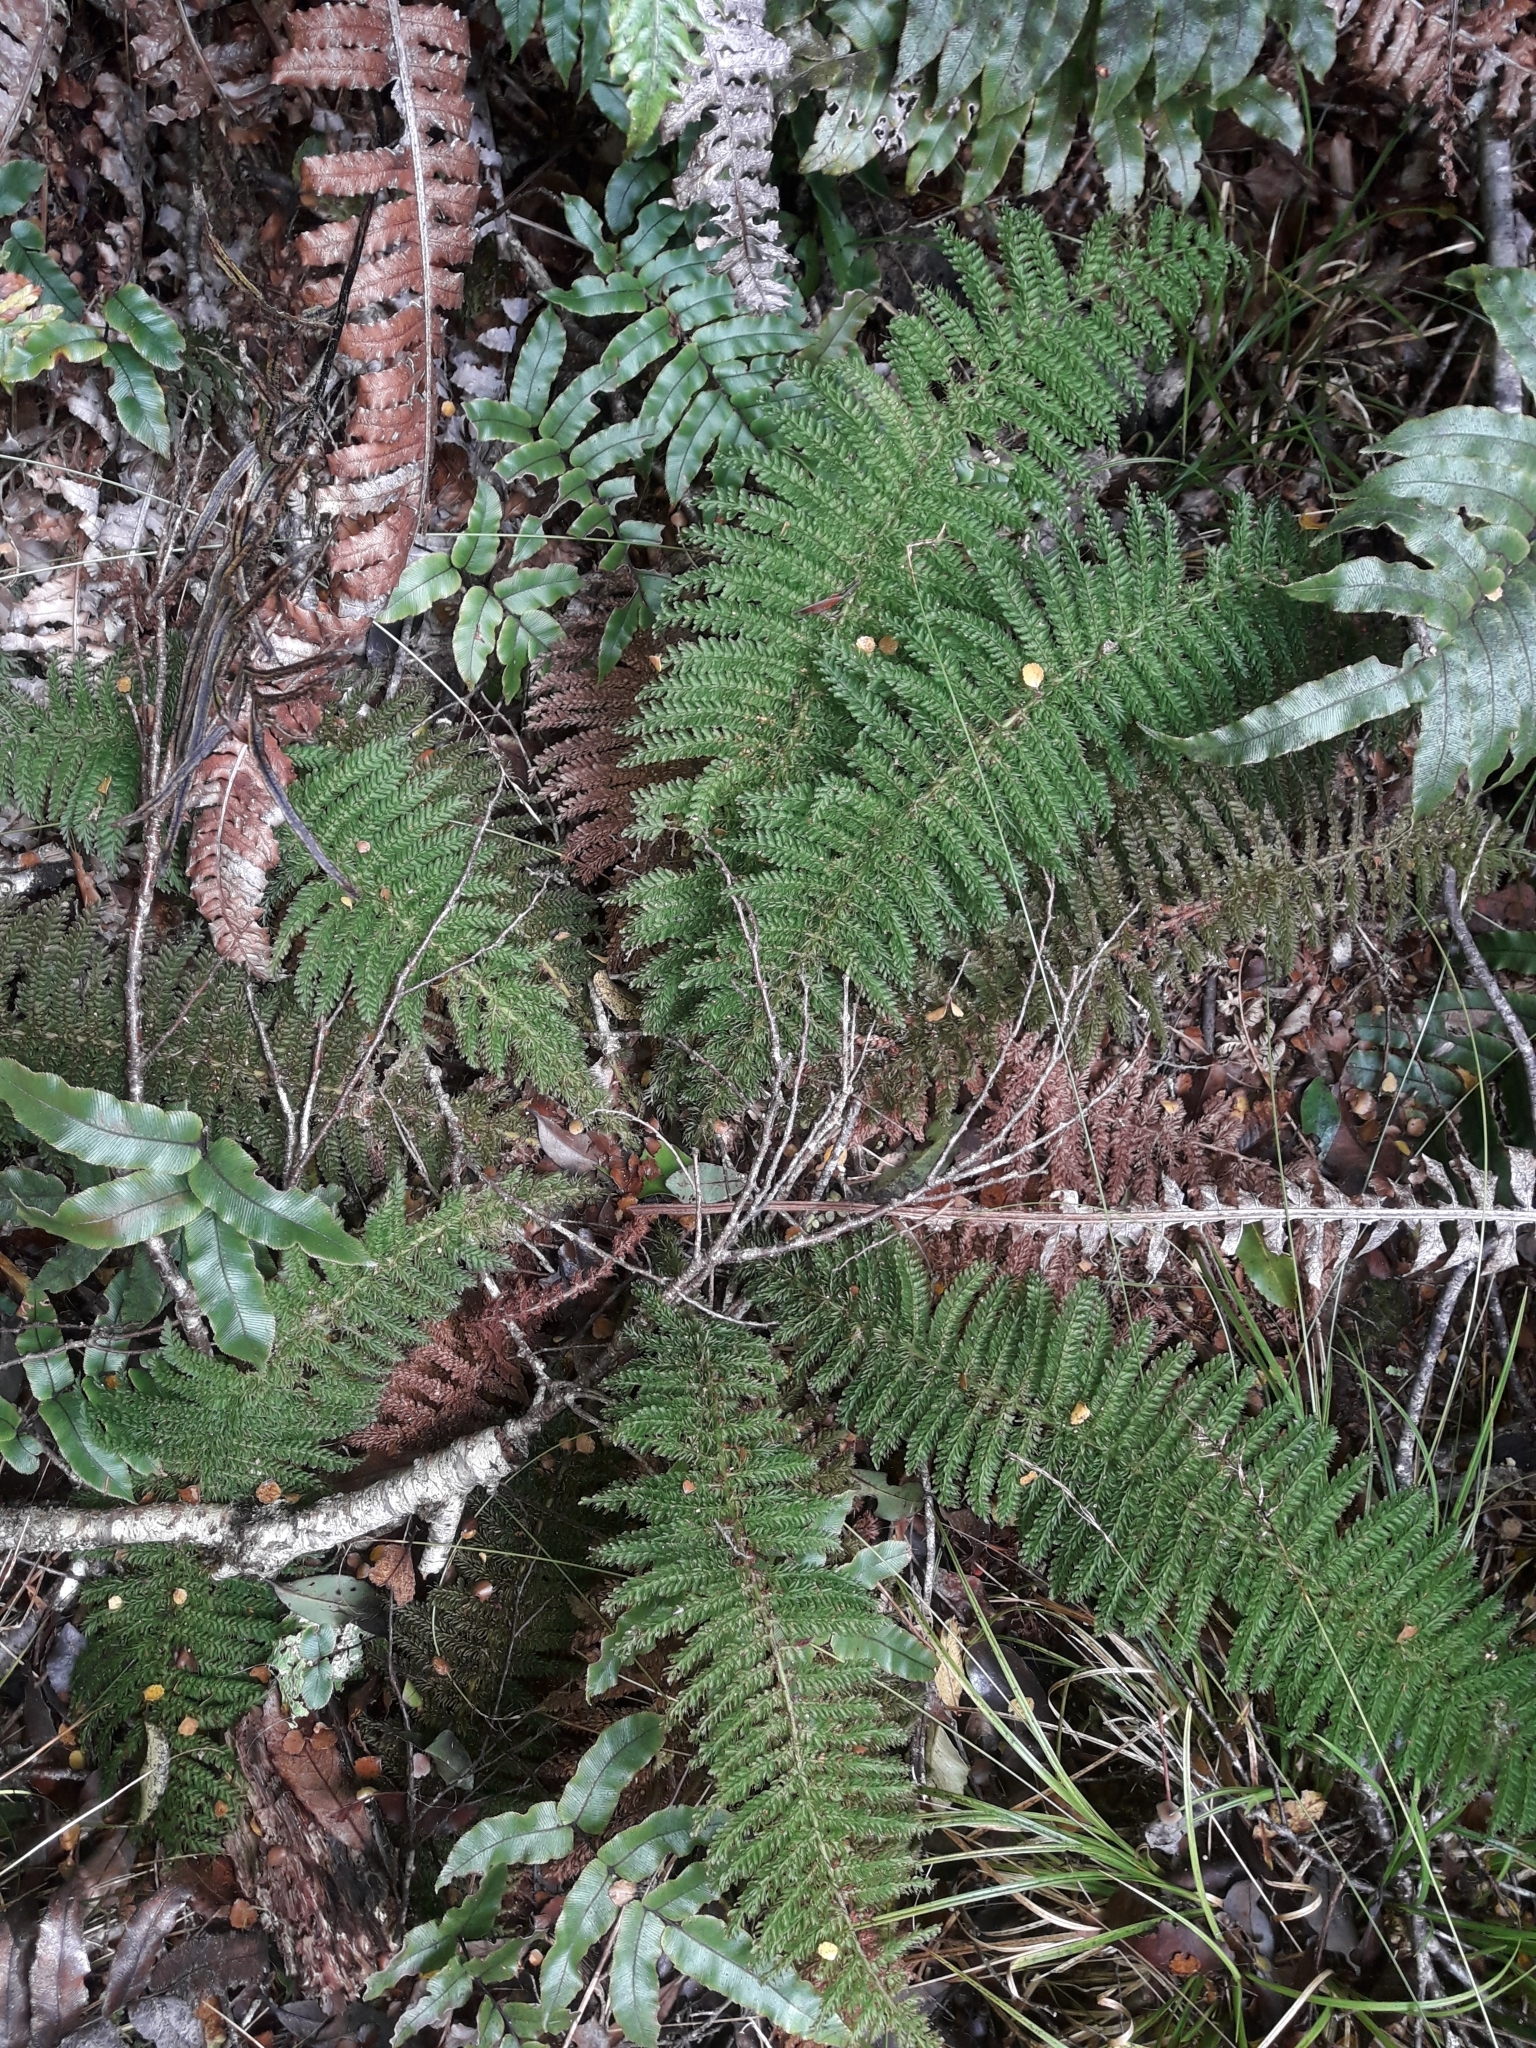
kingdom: Plantae
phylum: Tracheophyta
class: Polypodiopsida
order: Osmundales
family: Osmundaceae
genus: Leptopteris
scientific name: Leptopteris superba
